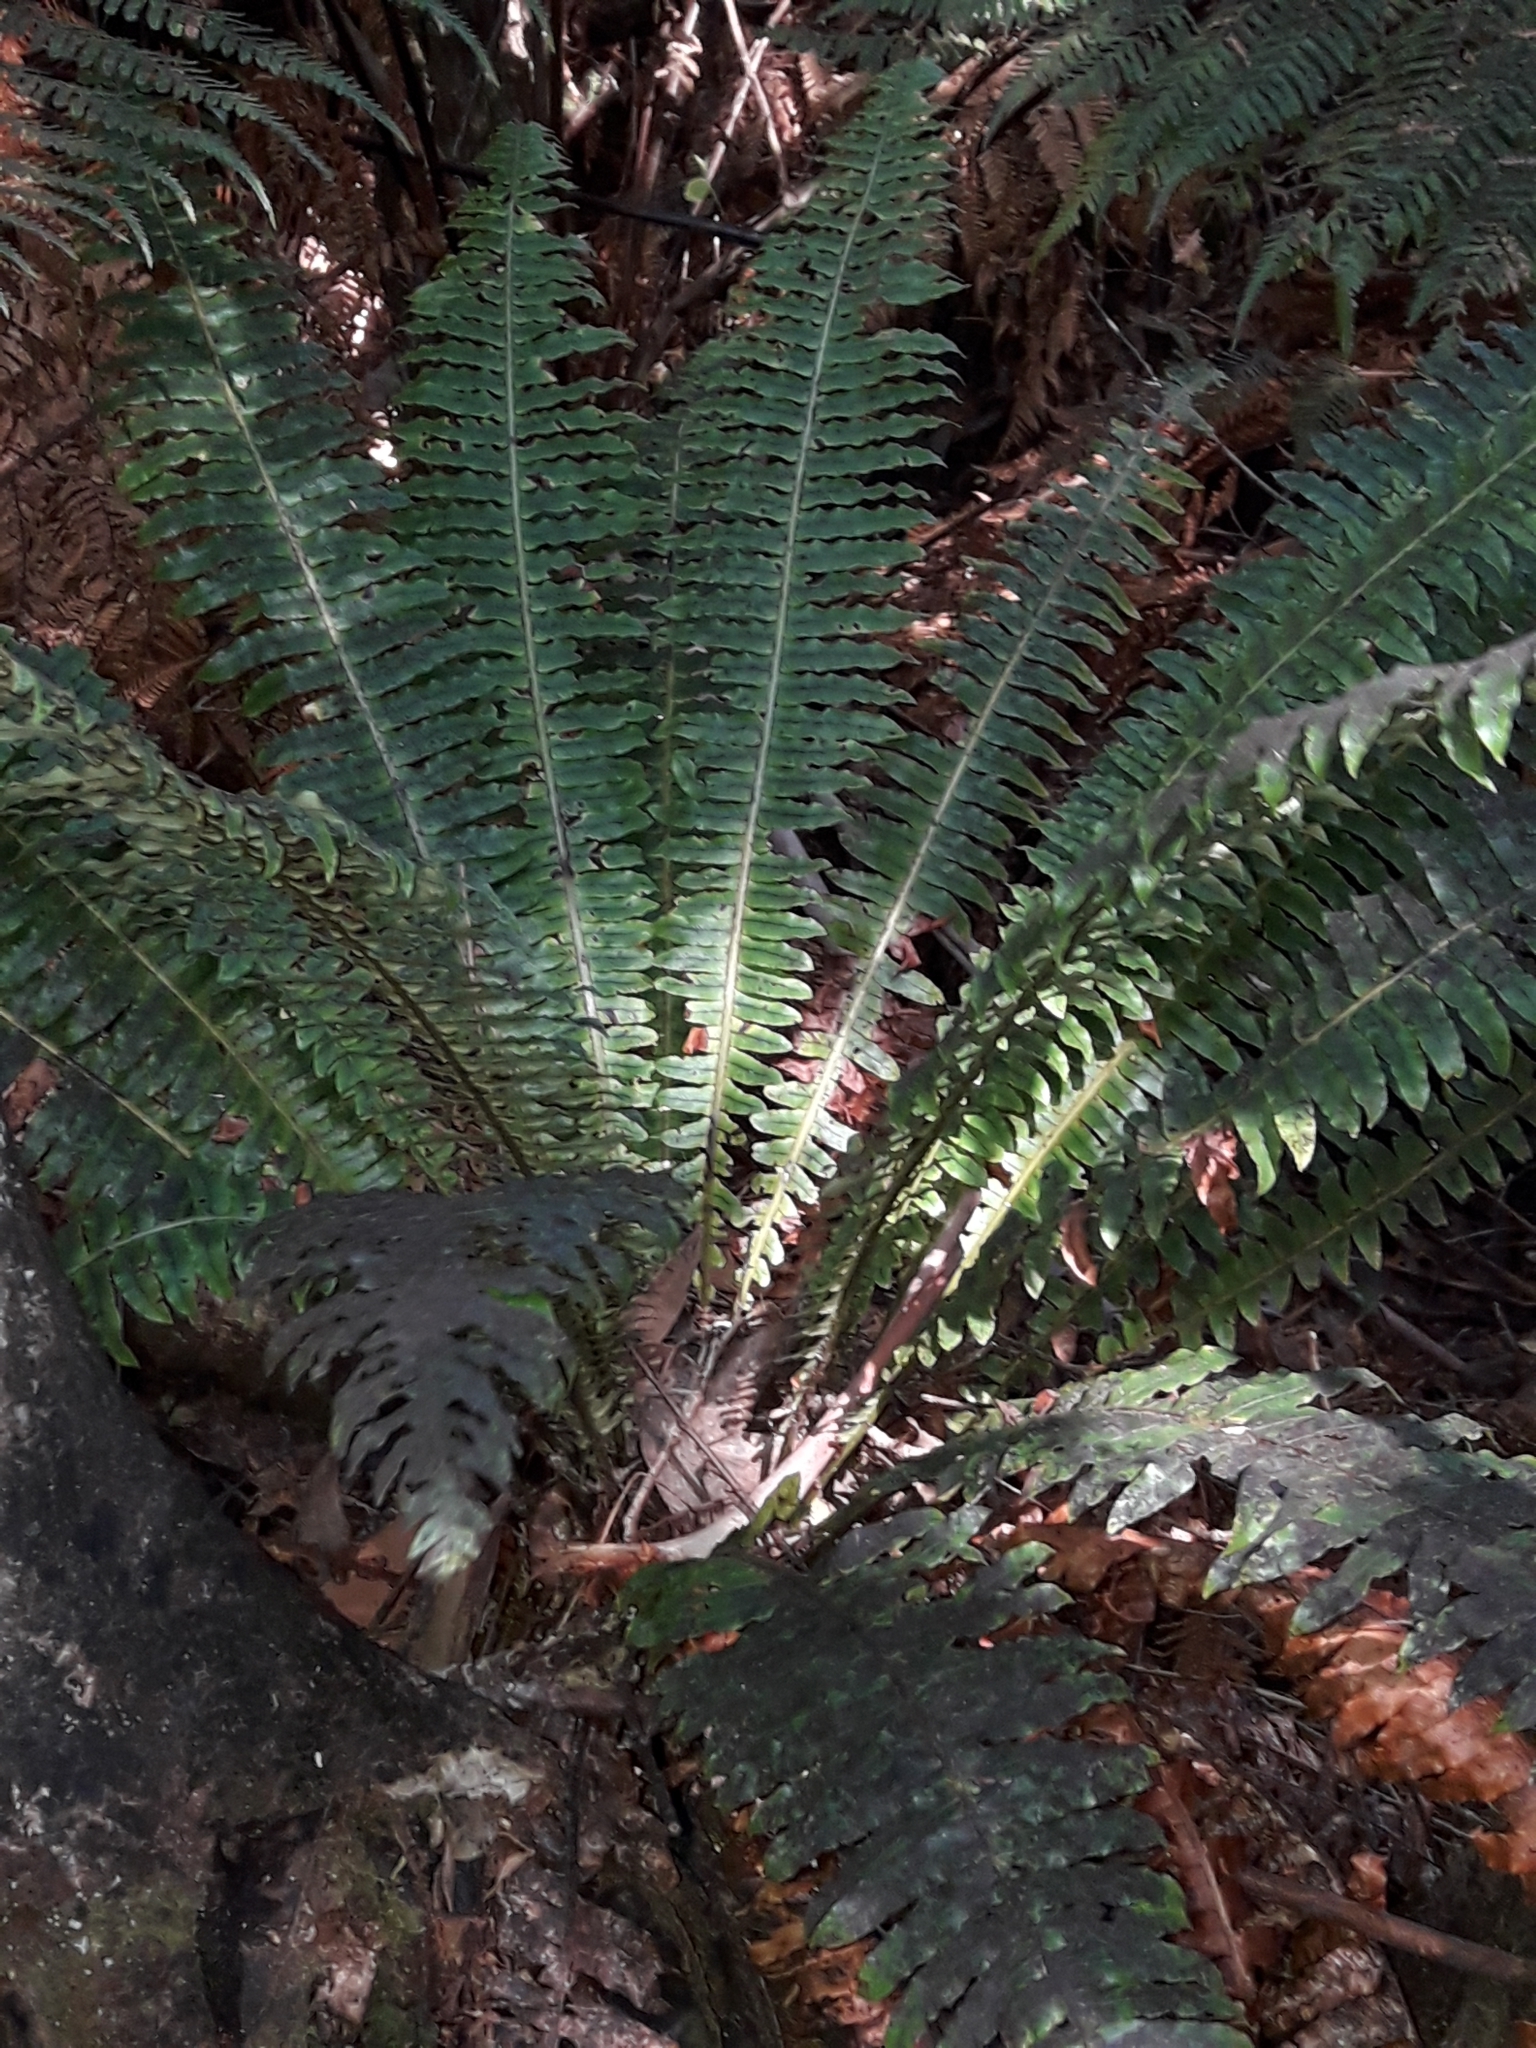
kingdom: Plantae
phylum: Tracheophyta
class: Polypodiopsida
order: Polypodiales
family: Blechnaceae
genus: Lomaria
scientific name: Lomaria discolor
